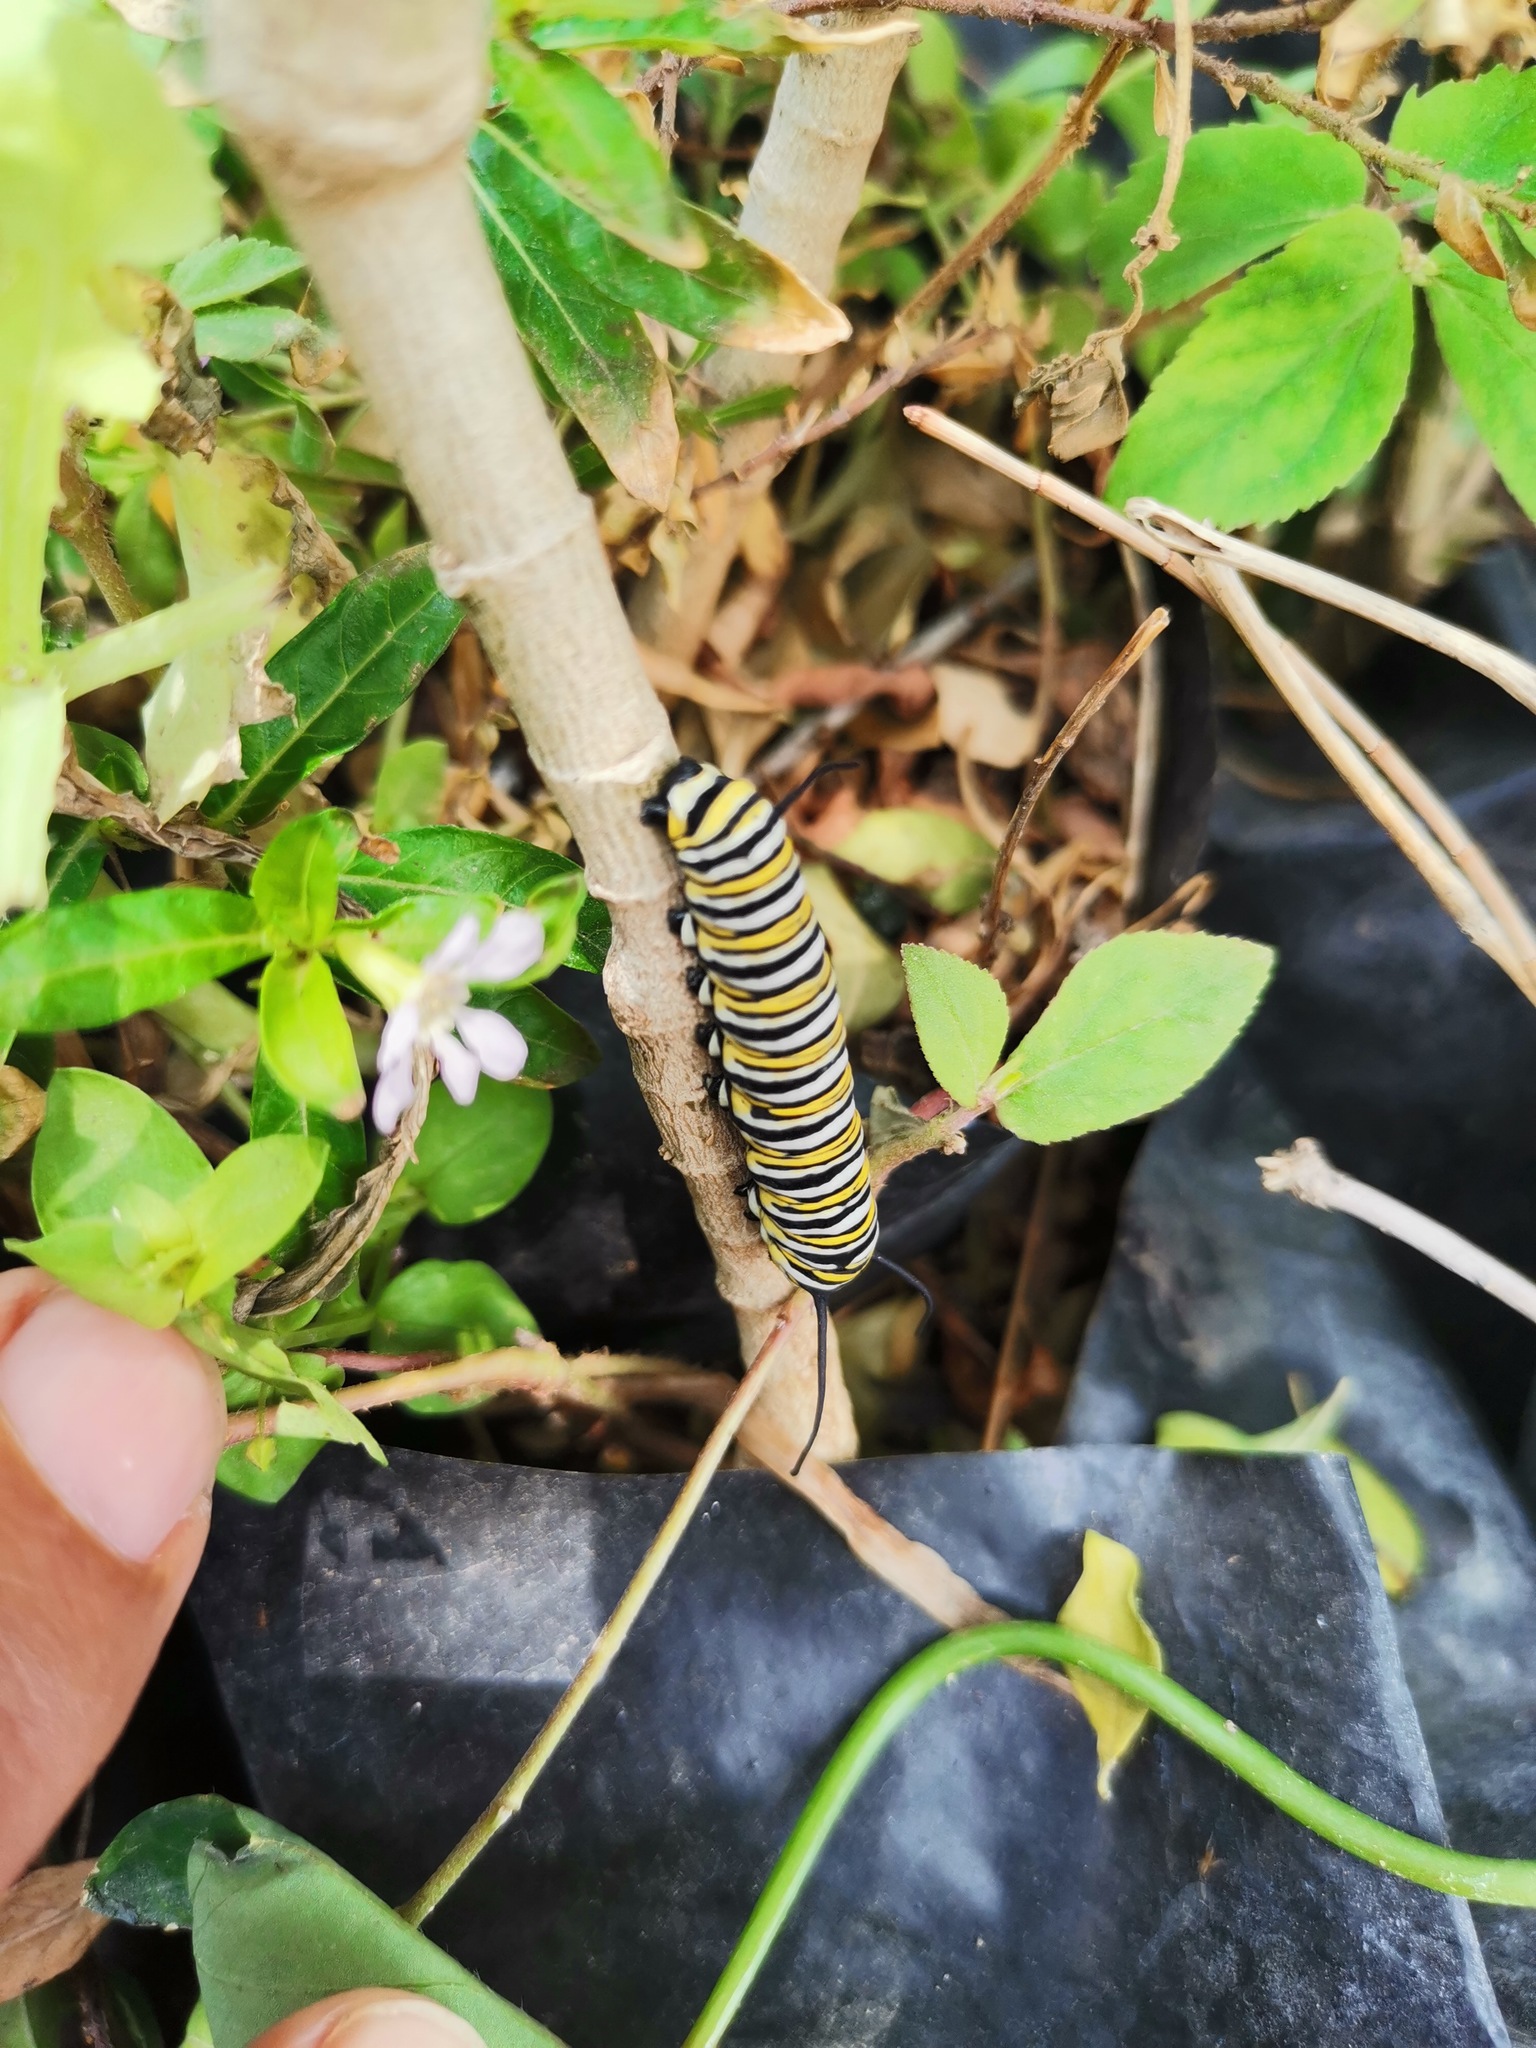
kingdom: Animalia
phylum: Arthropoda
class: Insecta
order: Lepidoptera
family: Nymphalidae
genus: Danaus
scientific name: Danaus plexippus
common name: Monarch
